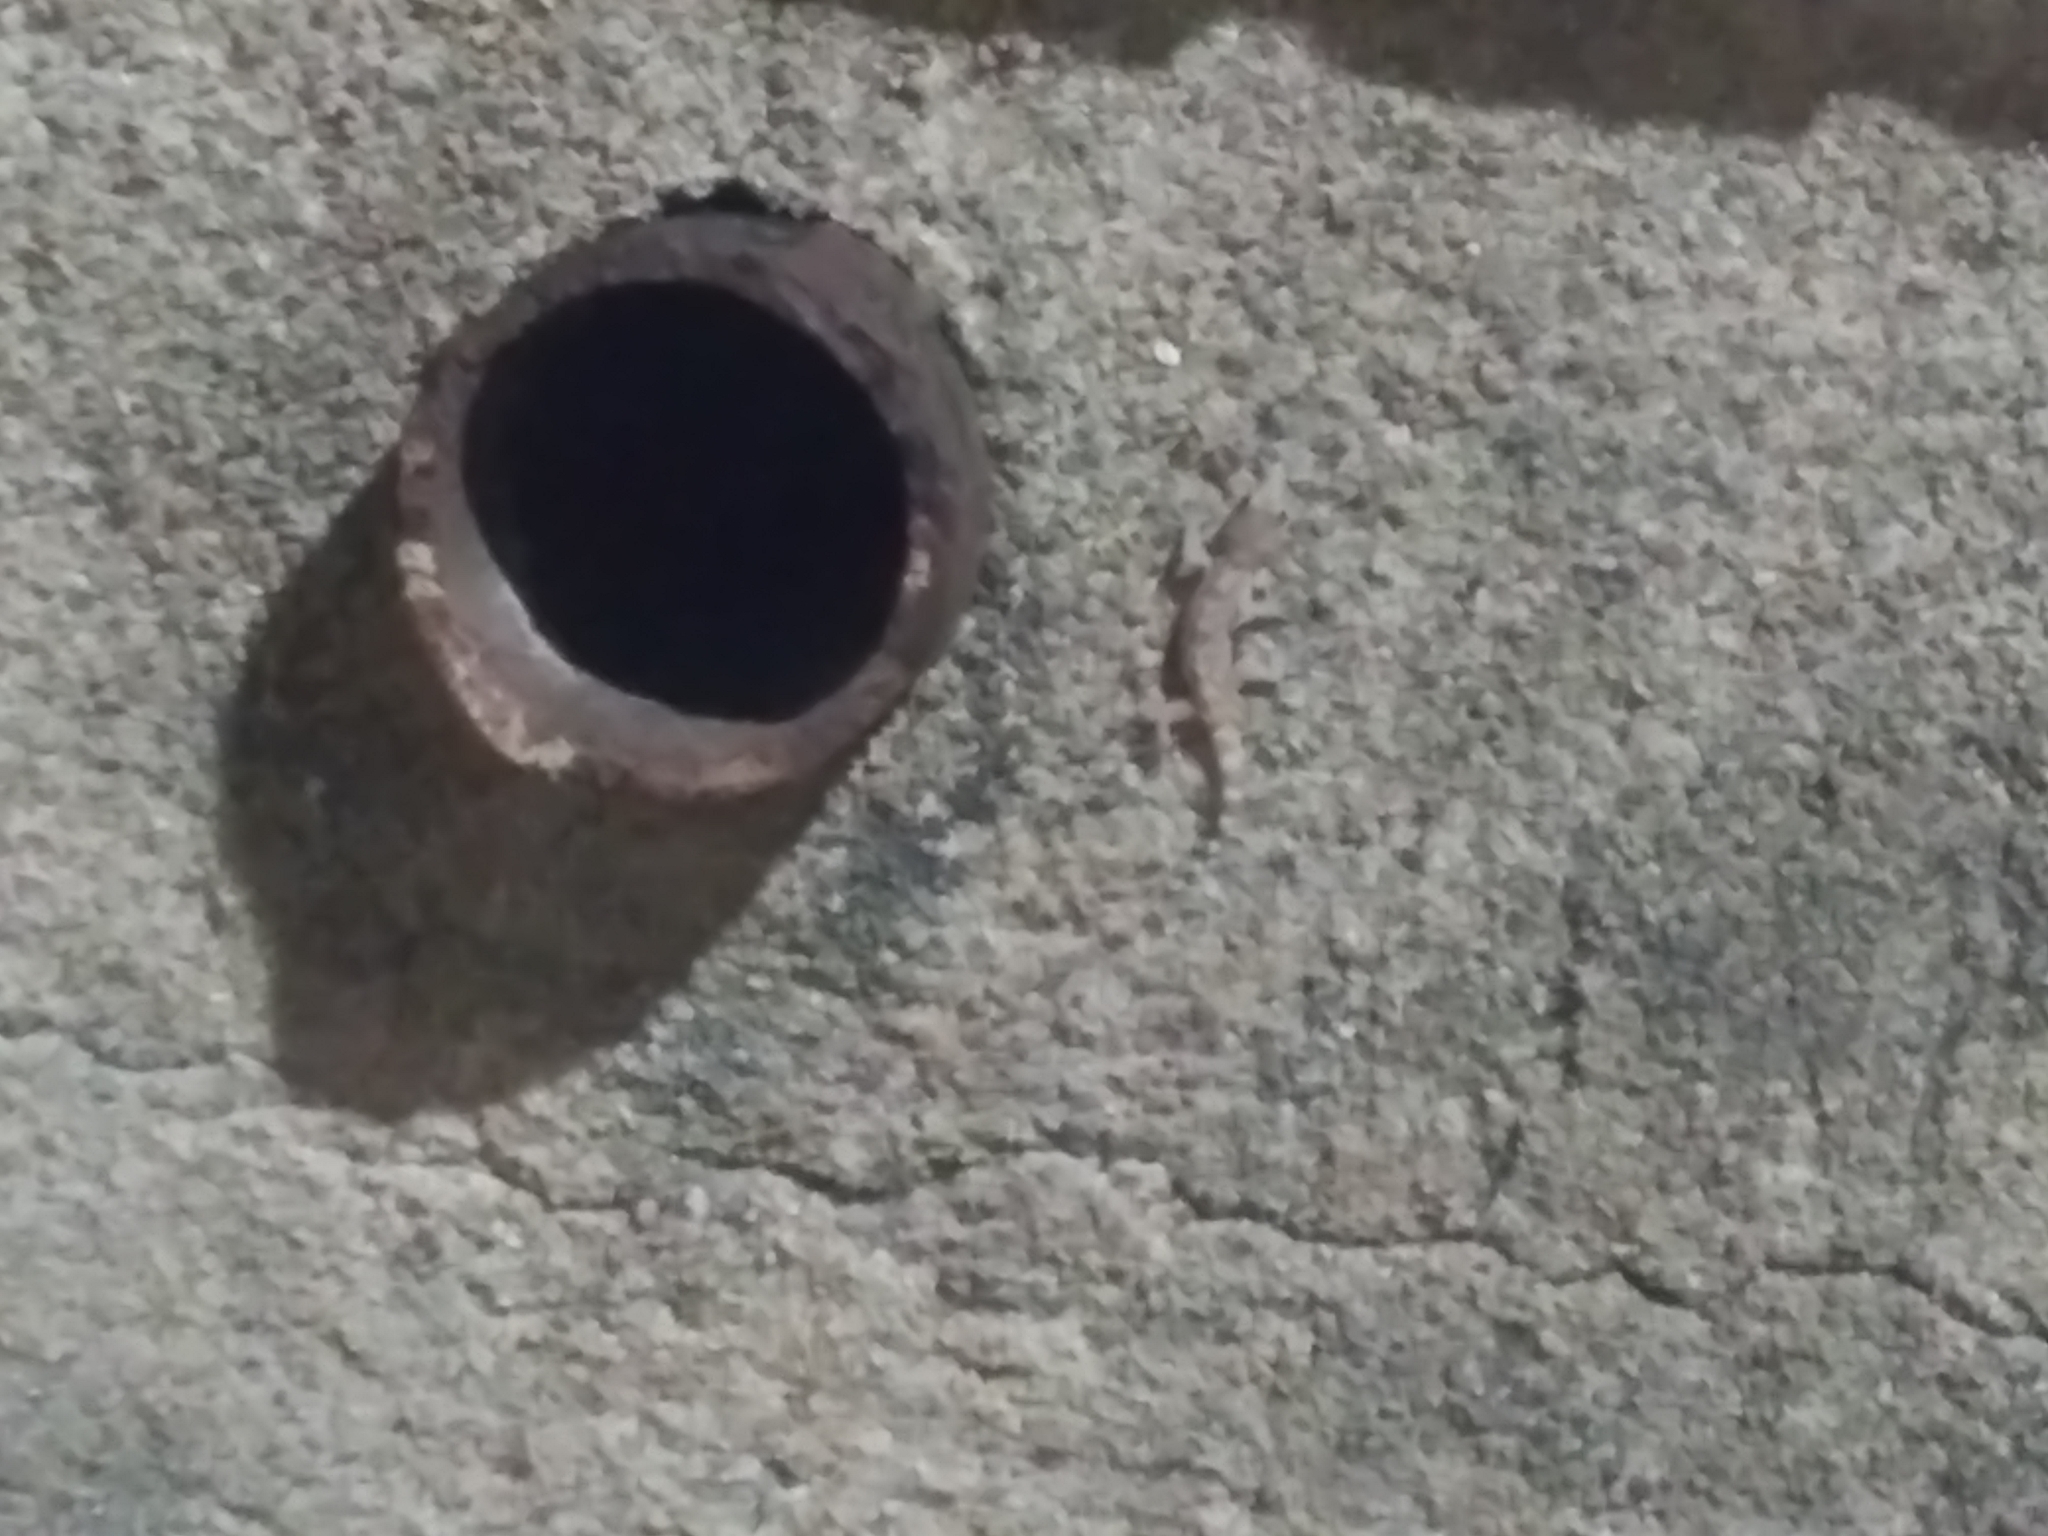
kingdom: Animalia
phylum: Chordata
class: Squamata
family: Gekkonidae
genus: Hemidactylus
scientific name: Hemidactylus turcicus
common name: Turkish gecko
